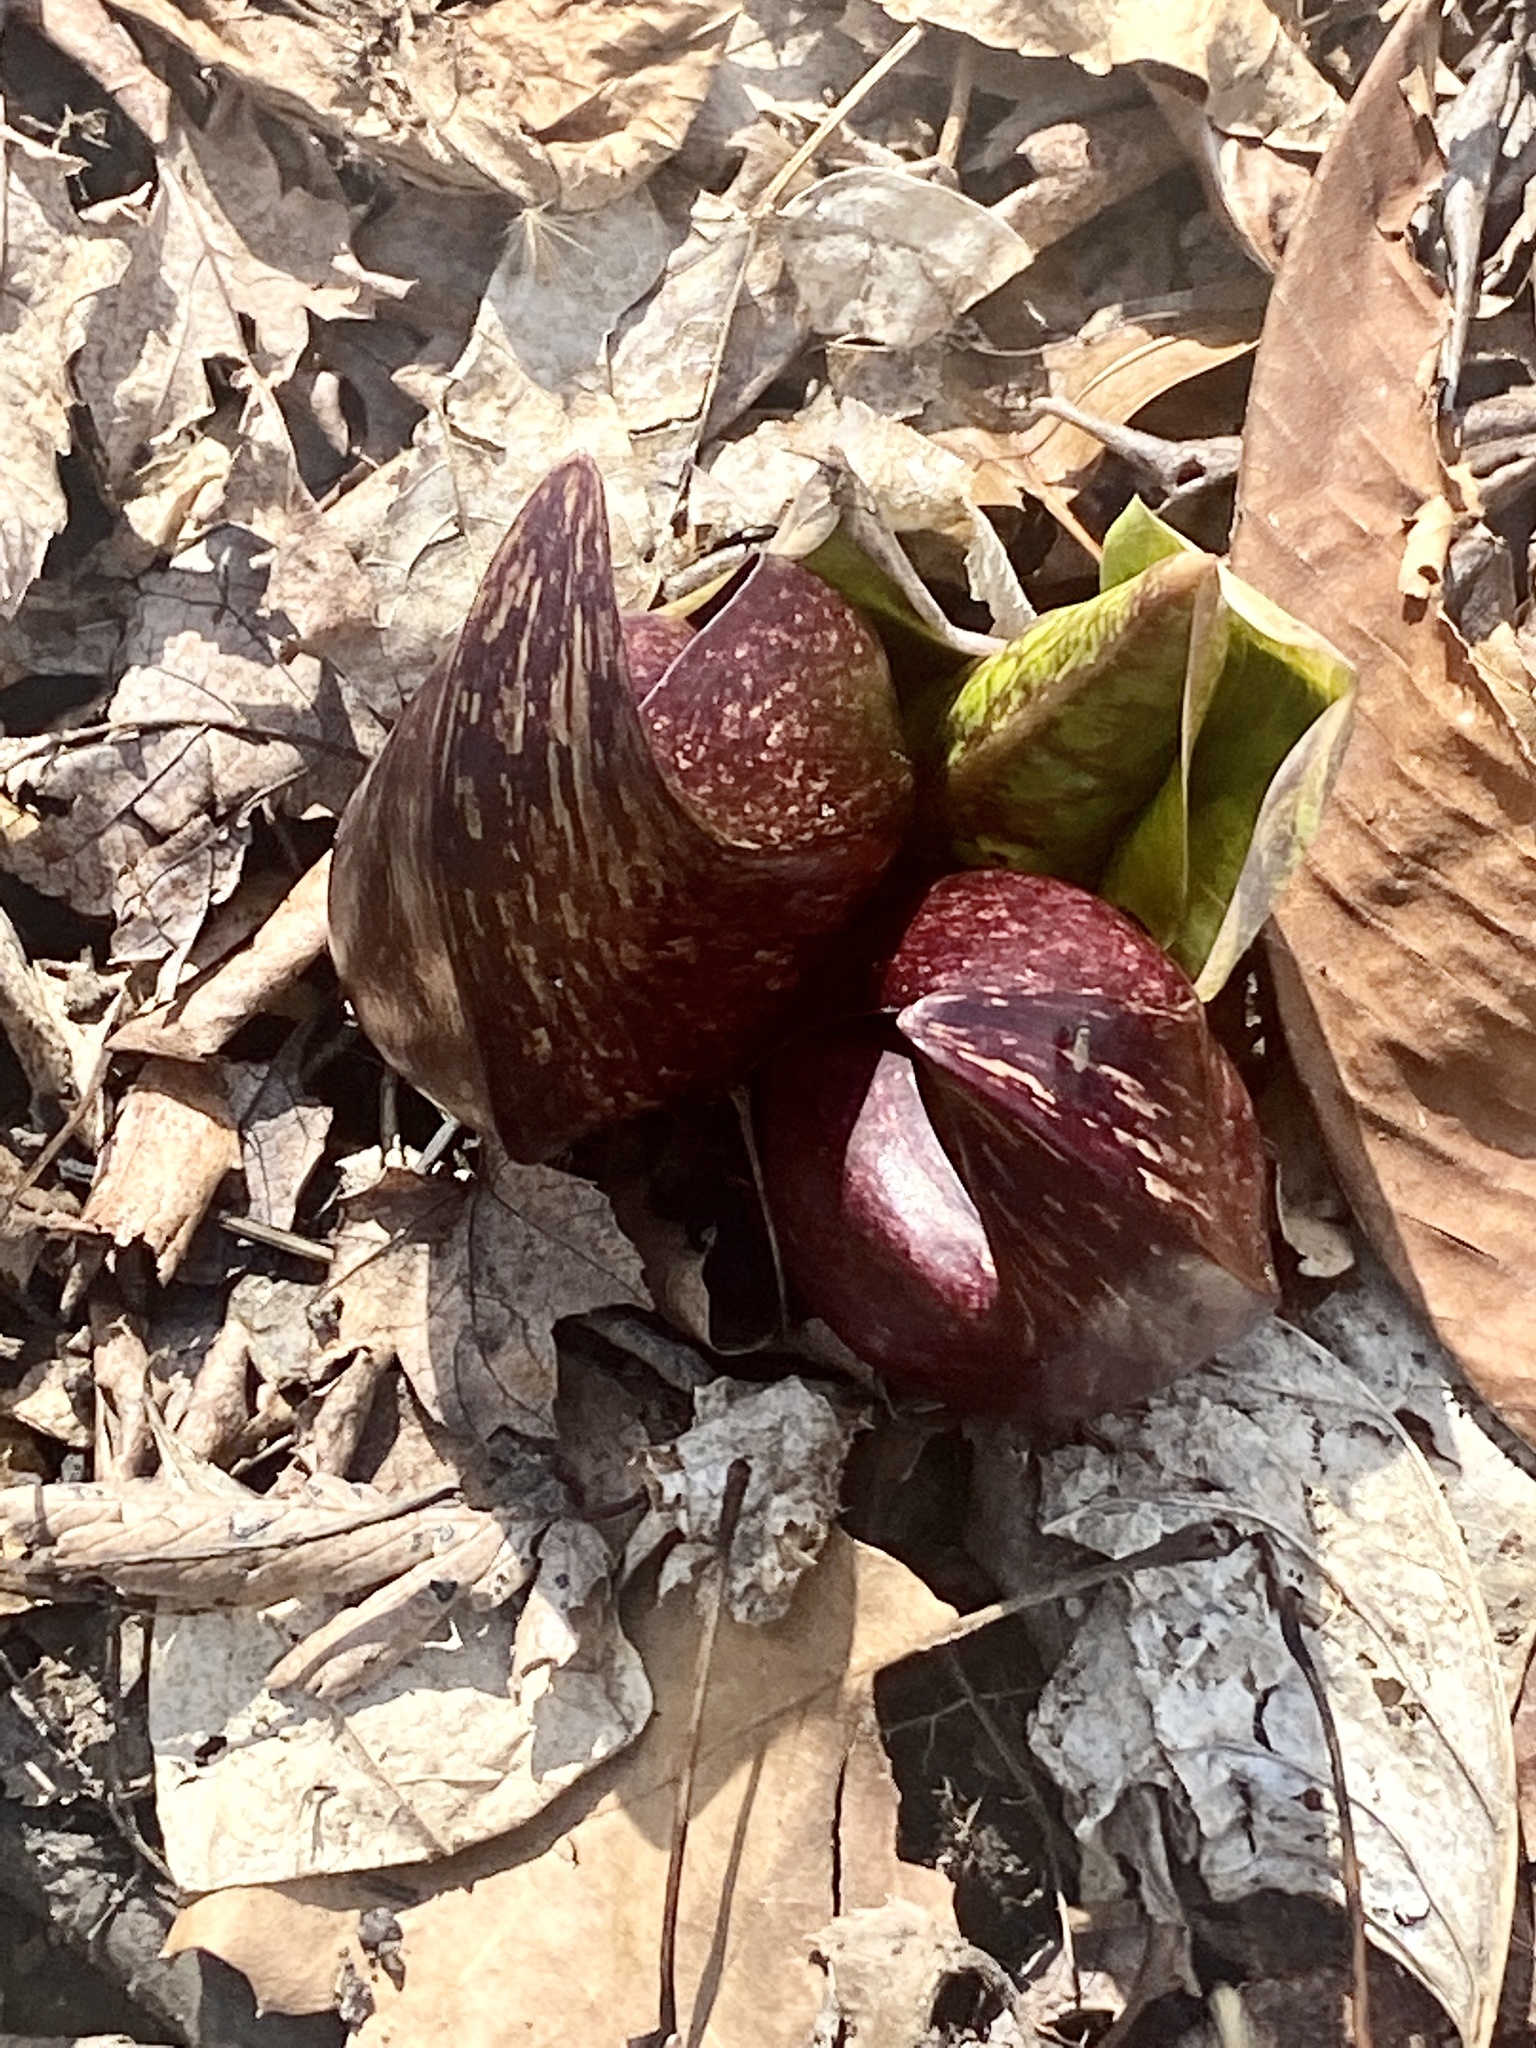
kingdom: Plantae
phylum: Tracheophyta
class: Liliopsida
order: Alismatales
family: Araceae
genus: Symplocarpus
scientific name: Symplocarpus foetidus
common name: Eastern skunk cabbage
